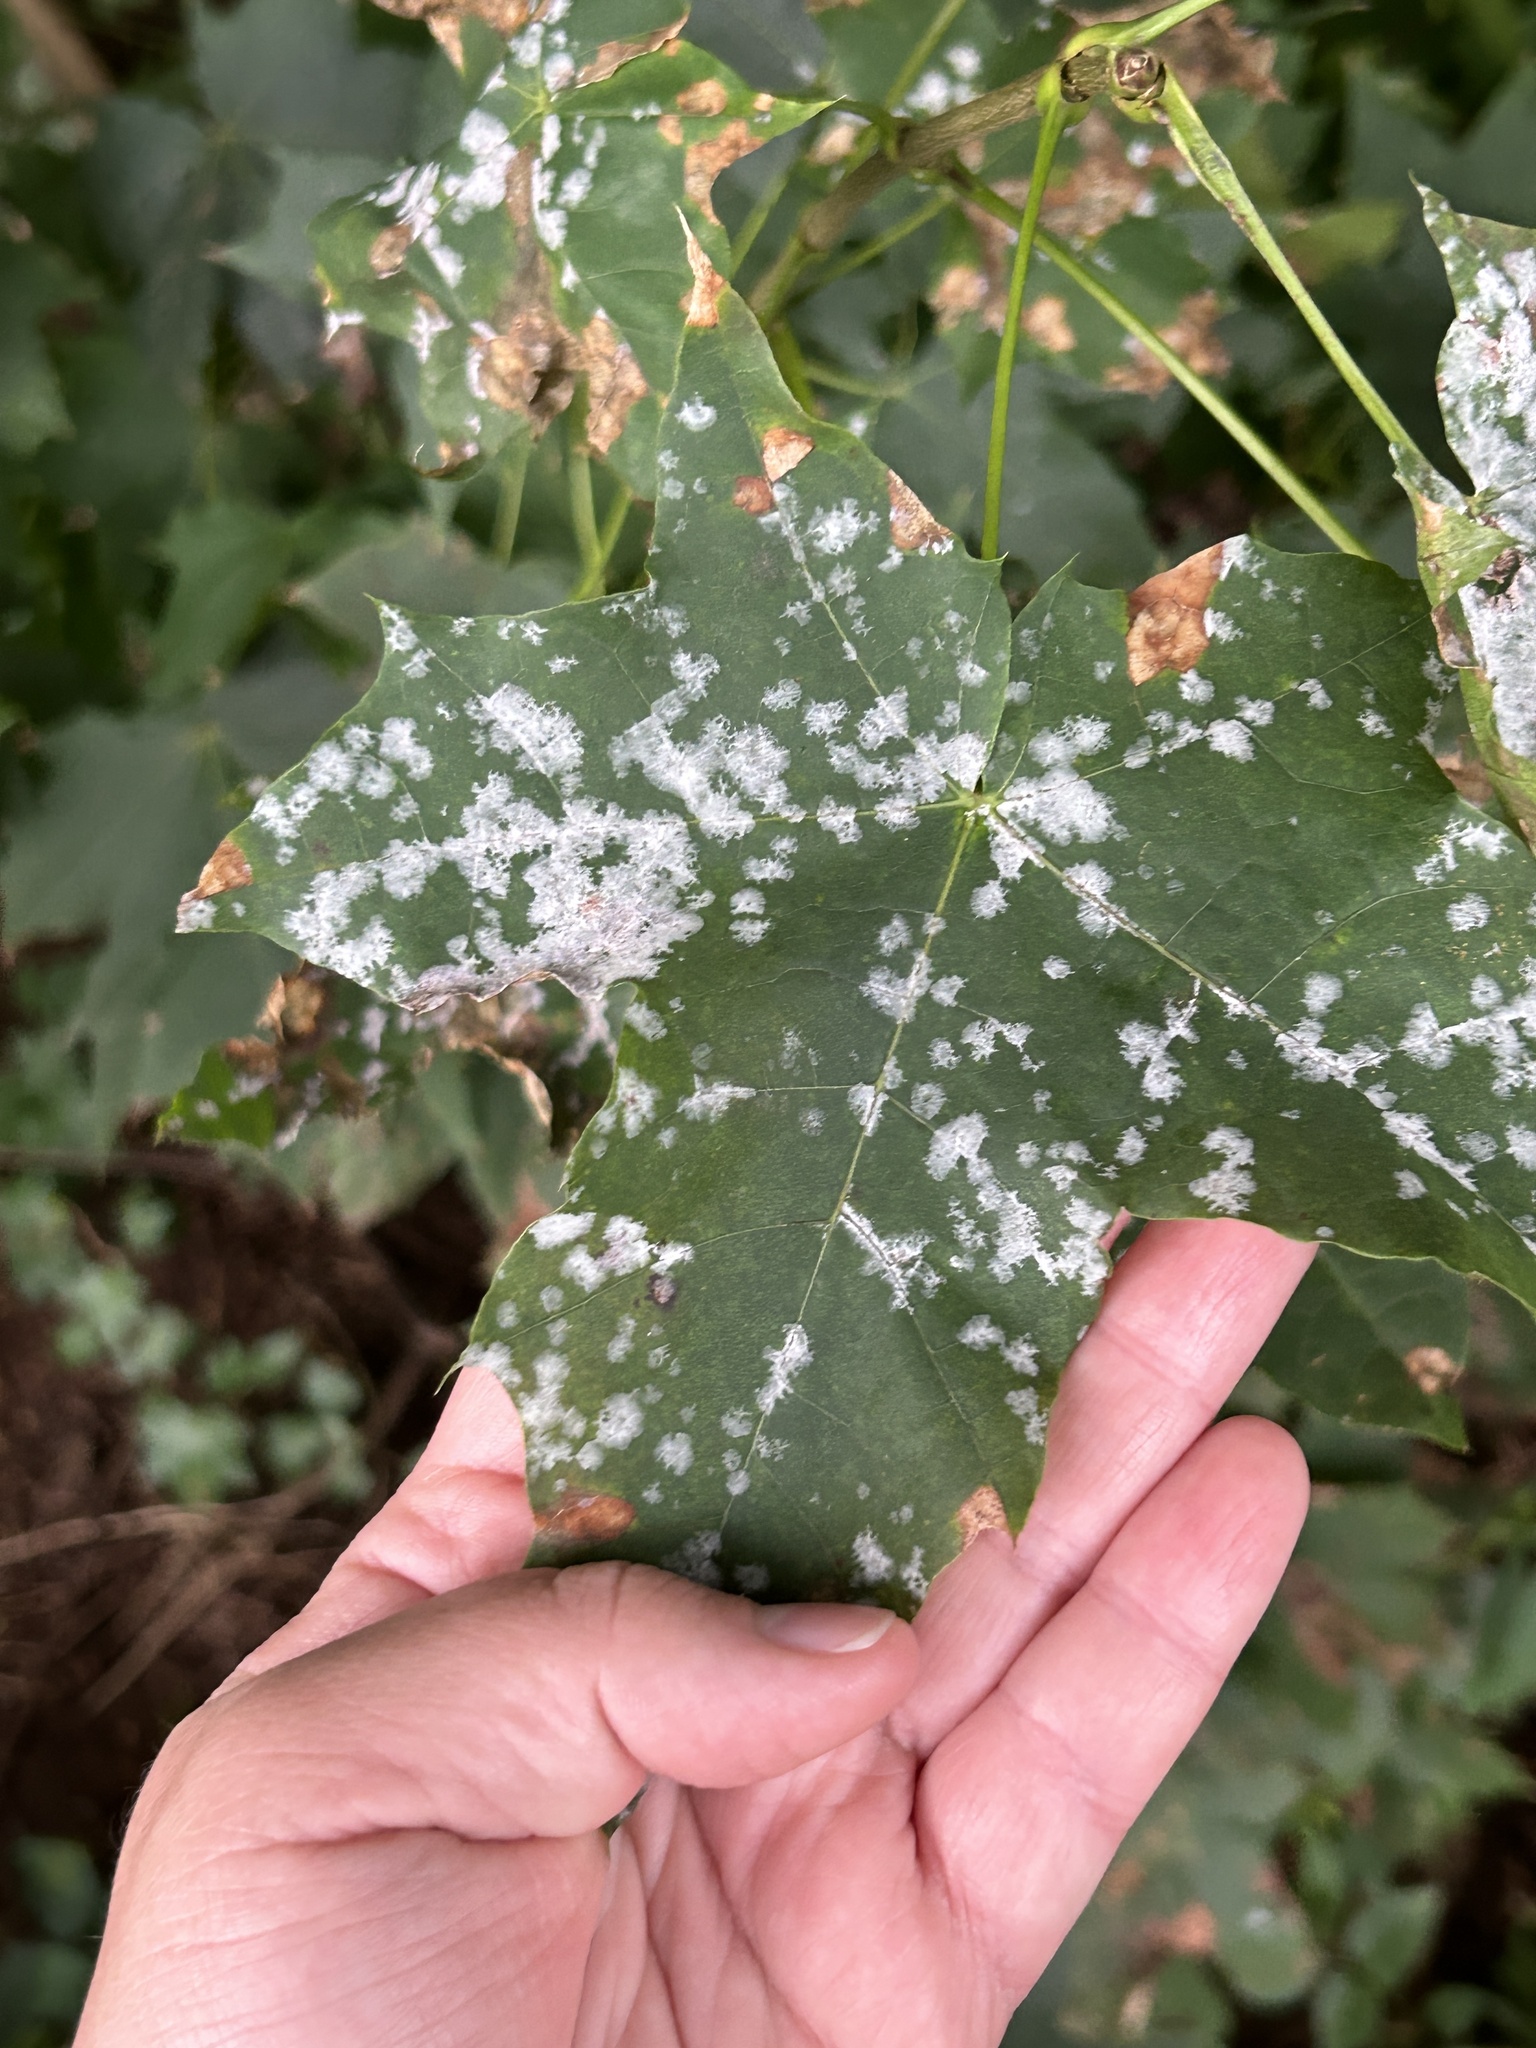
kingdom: Fungi
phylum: Ascomycota
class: Leotiomycetes
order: Helotiales
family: Erysiphaceae
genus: Sawadaea
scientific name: Sawadaea tulasnei
